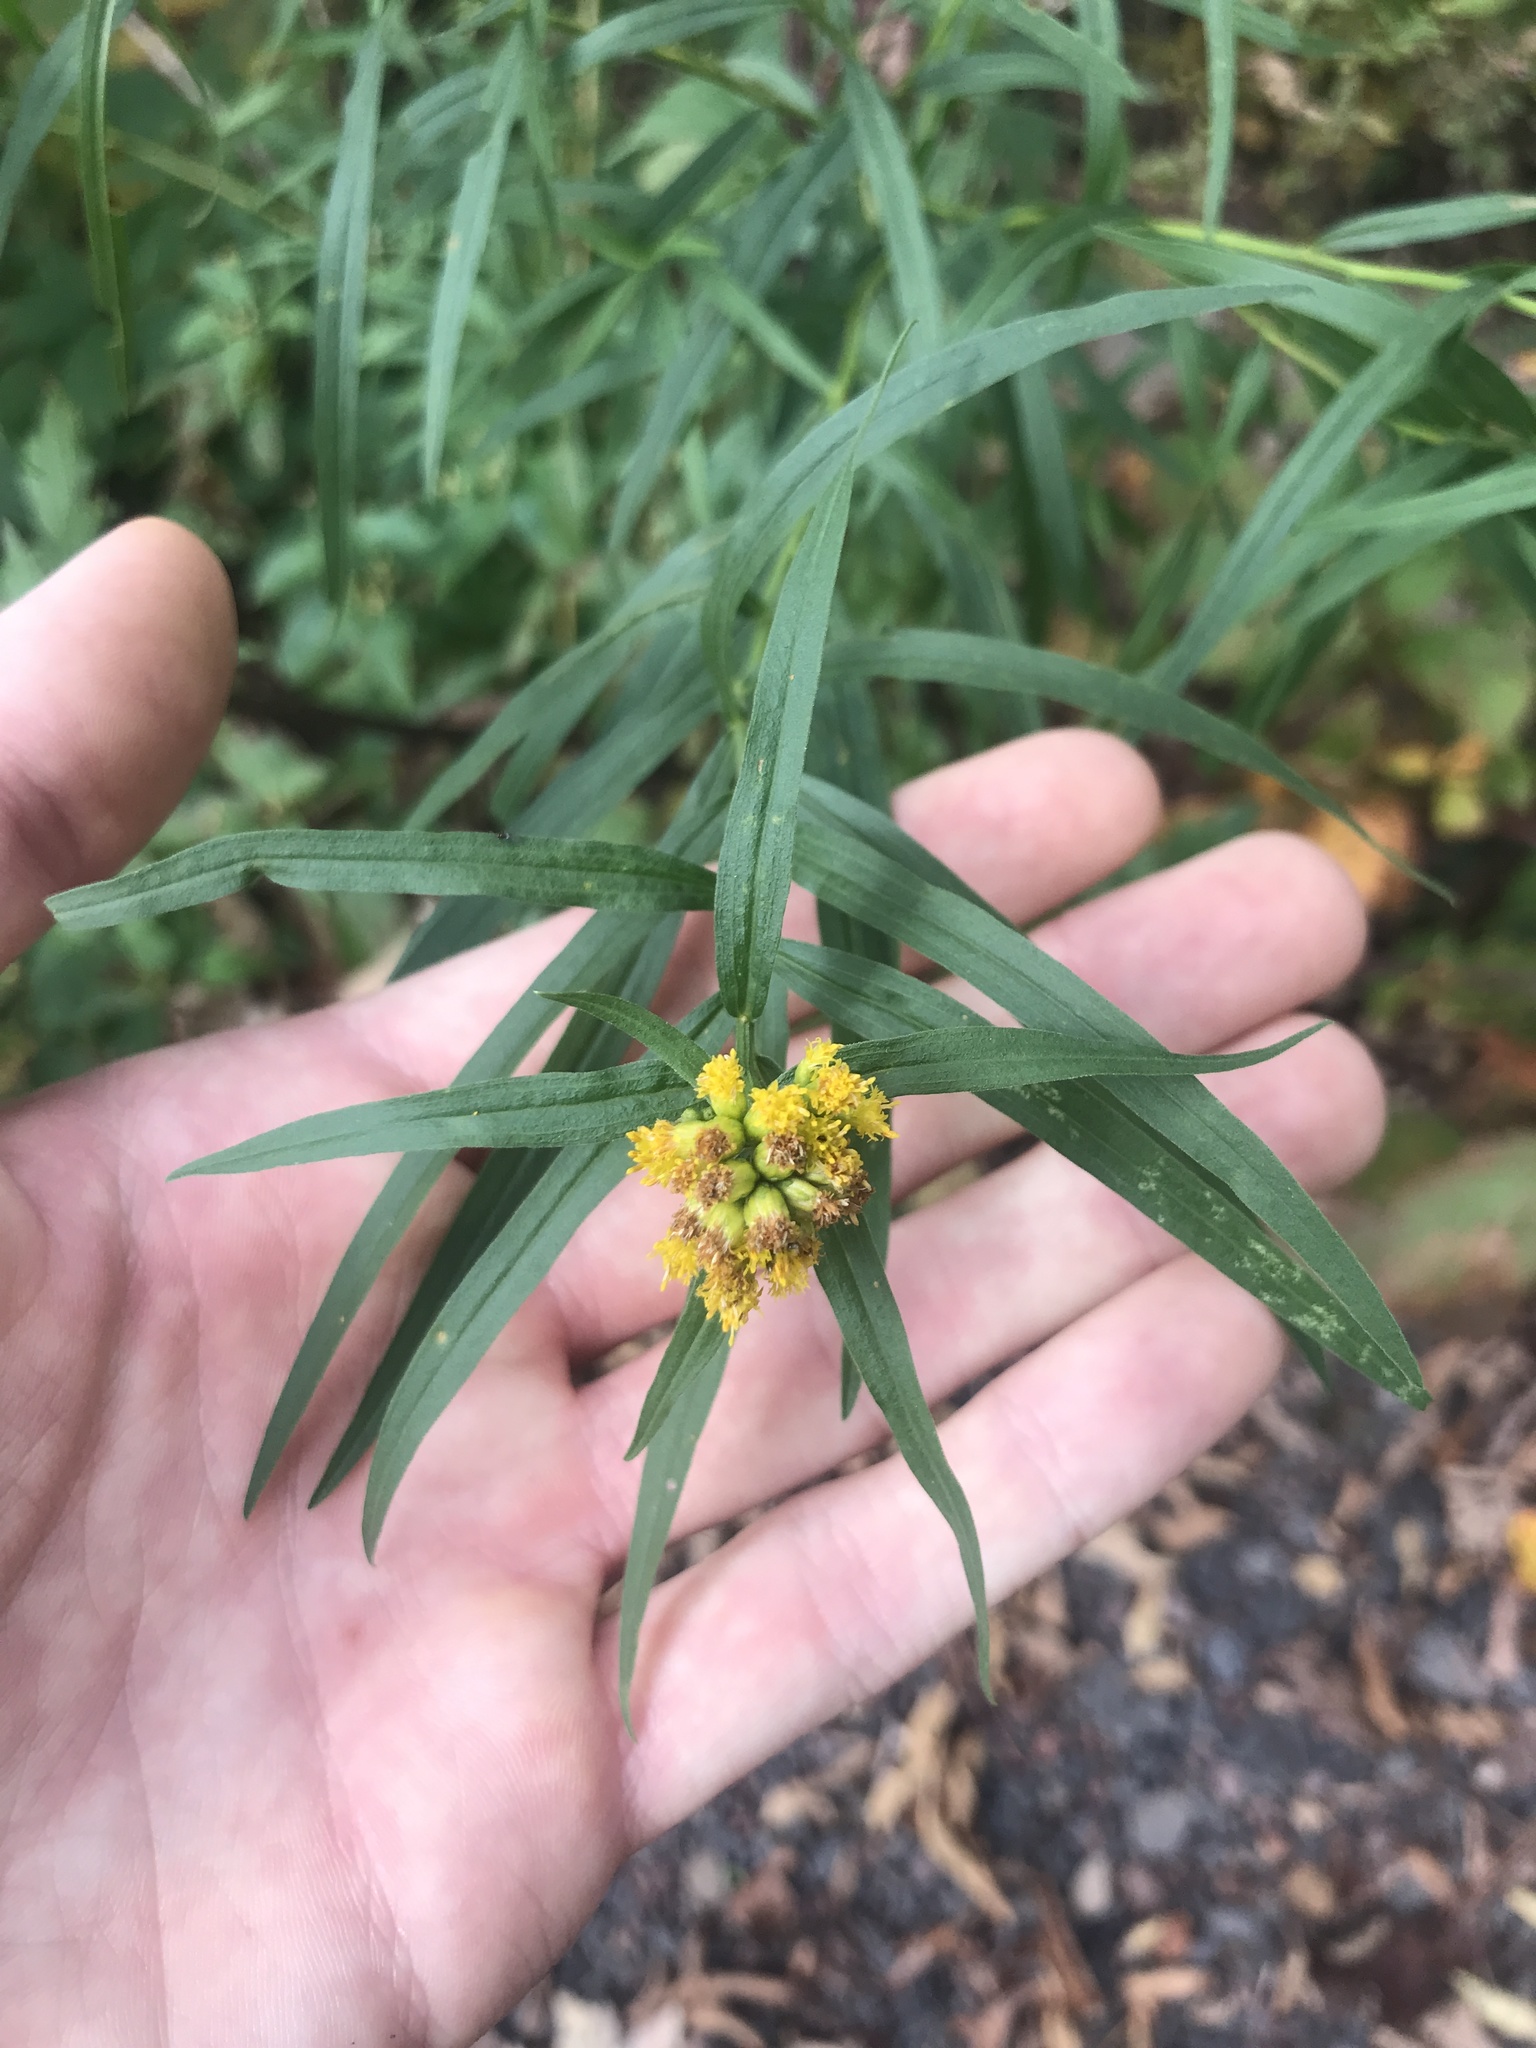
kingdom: Plantae
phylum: Tracheophyta
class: Magnoliopsida
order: Asterales
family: Asteraceae
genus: Euthamia
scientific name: Euthamia graminifolia
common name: Common goldentop
